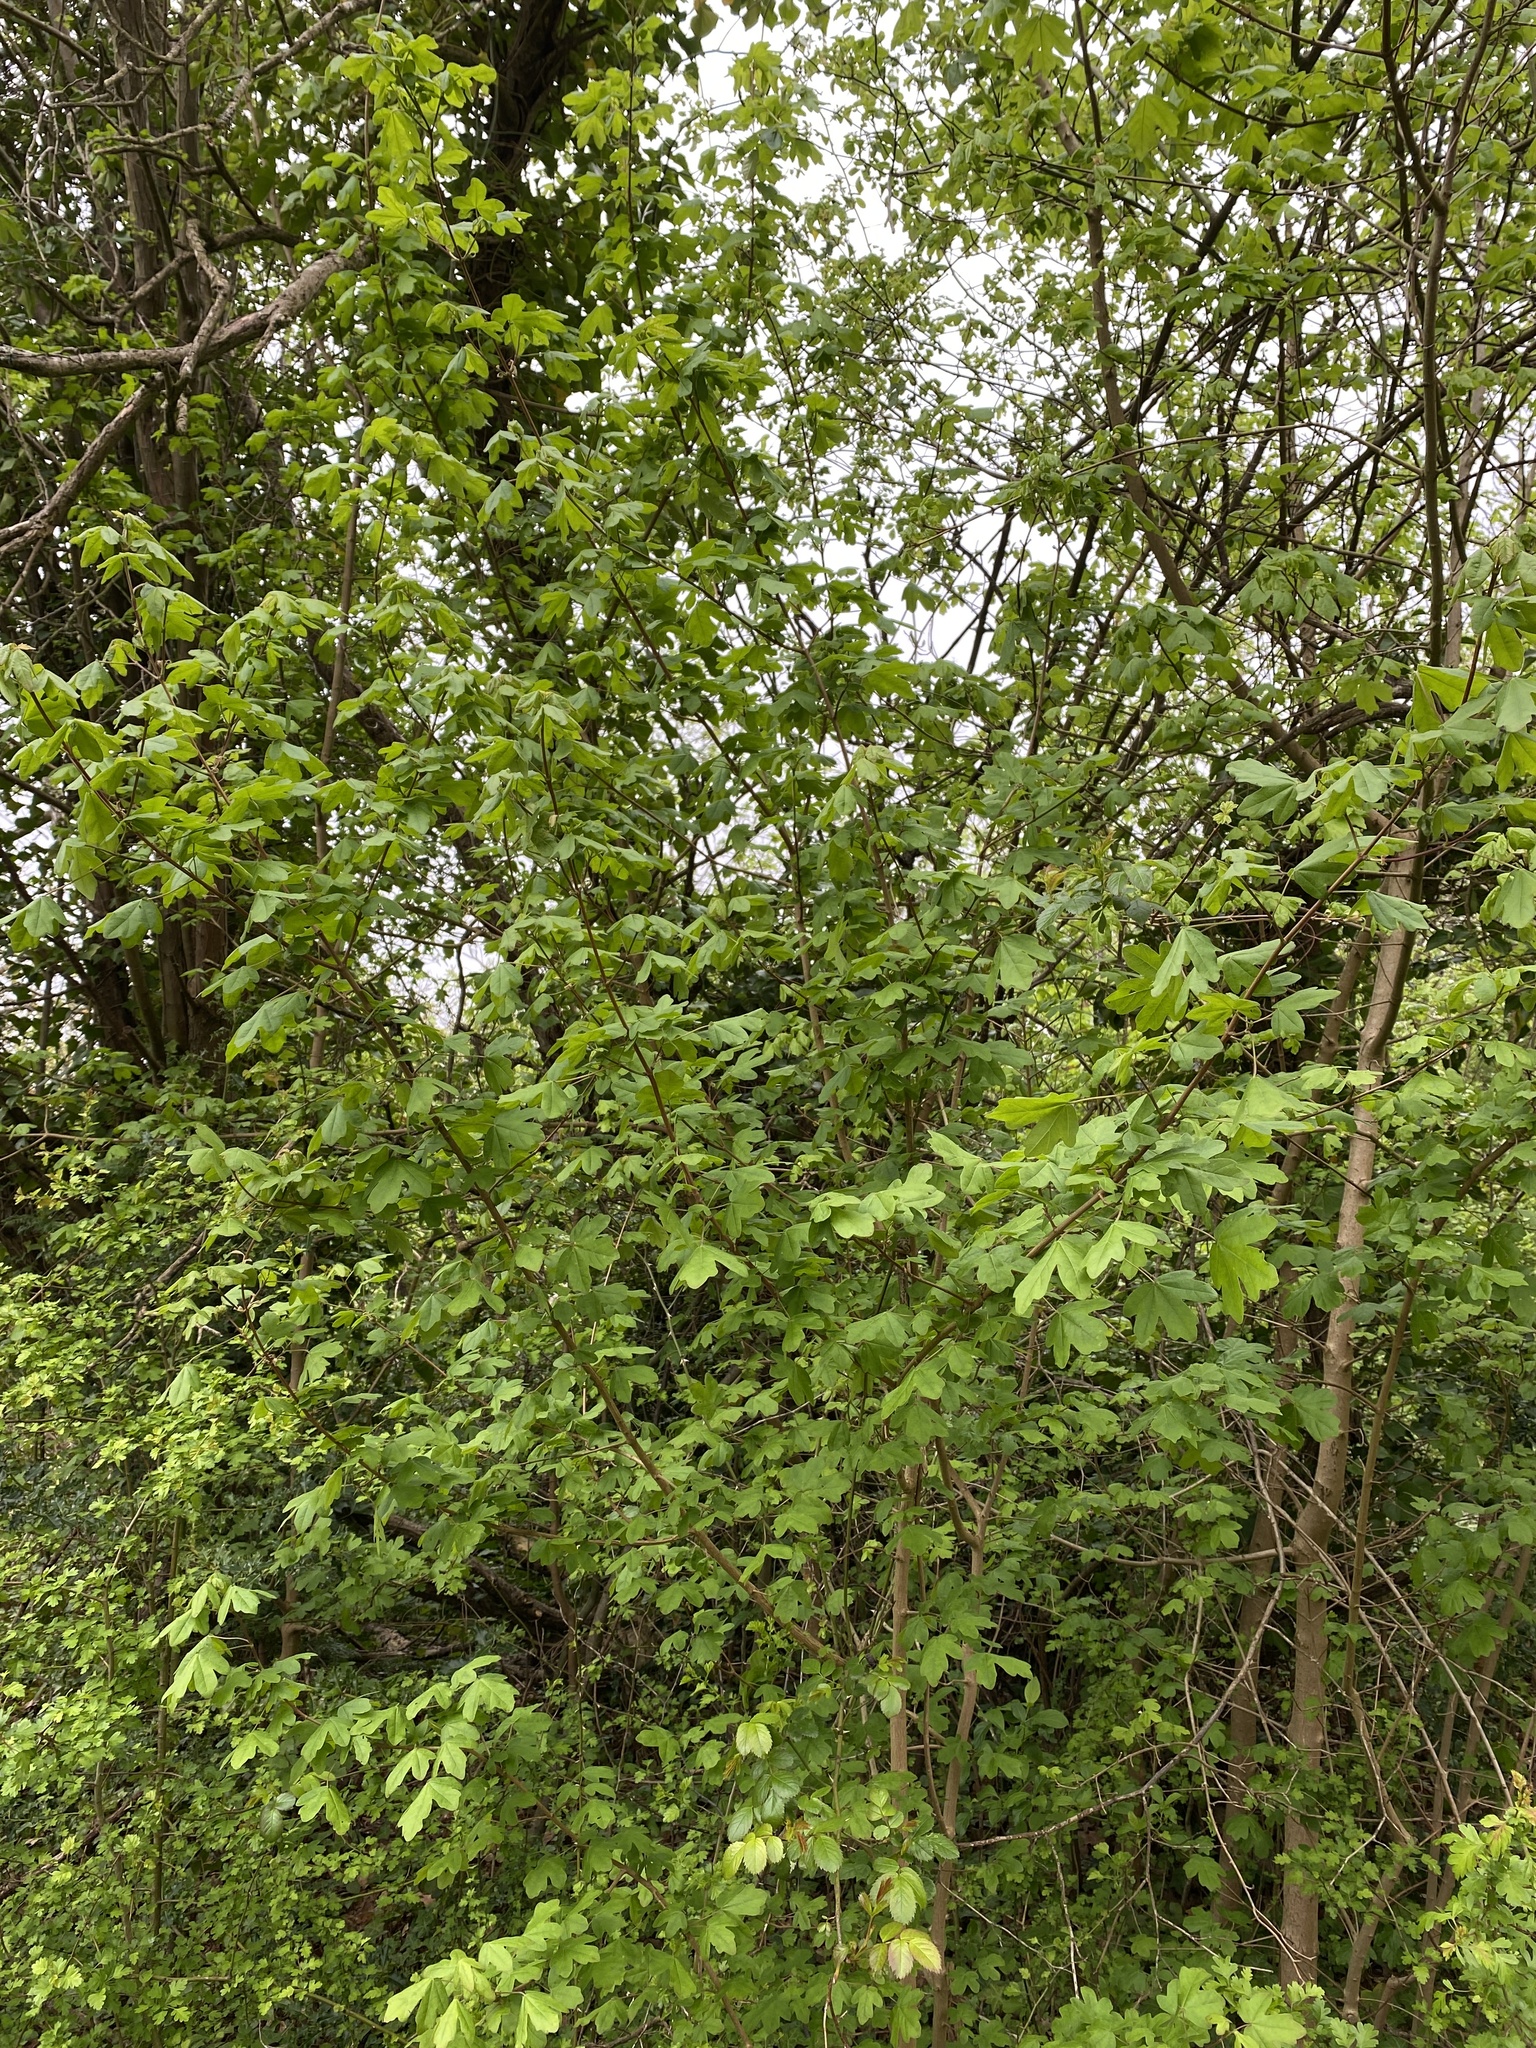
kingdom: Plantae
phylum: Tracheophyta
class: Magnoliopsida
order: Sapindales
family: Sapindaceae
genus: Acer
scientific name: Acer campestre
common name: Field maple
